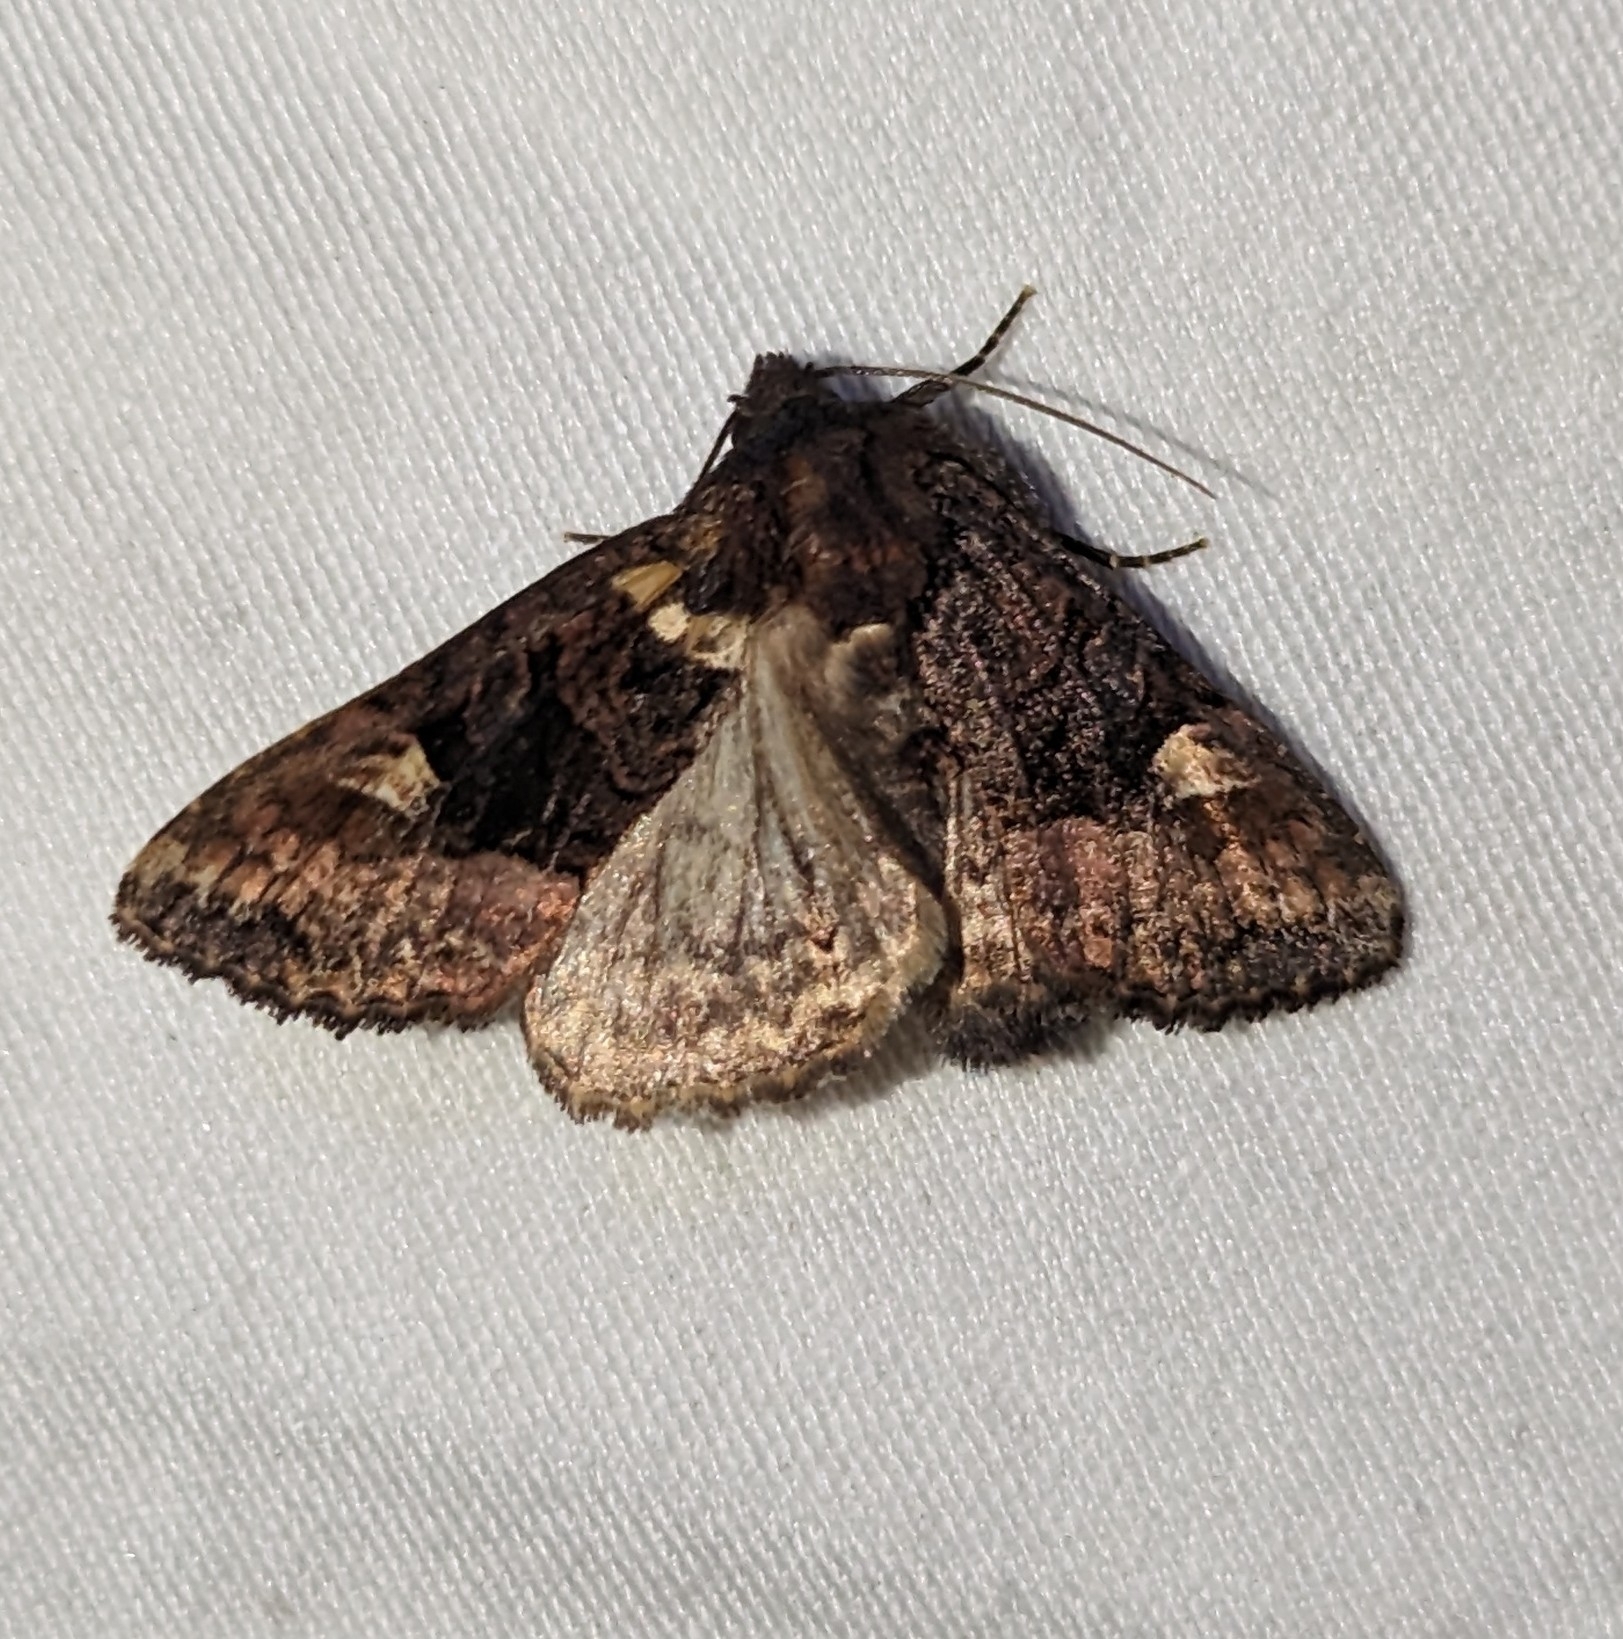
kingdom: Animalia
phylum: Arthropoda
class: Insecta
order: Lepidoptera
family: Noctuidae
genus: Euplexia
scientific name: Euplexia benesimilis
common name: American angle shades
